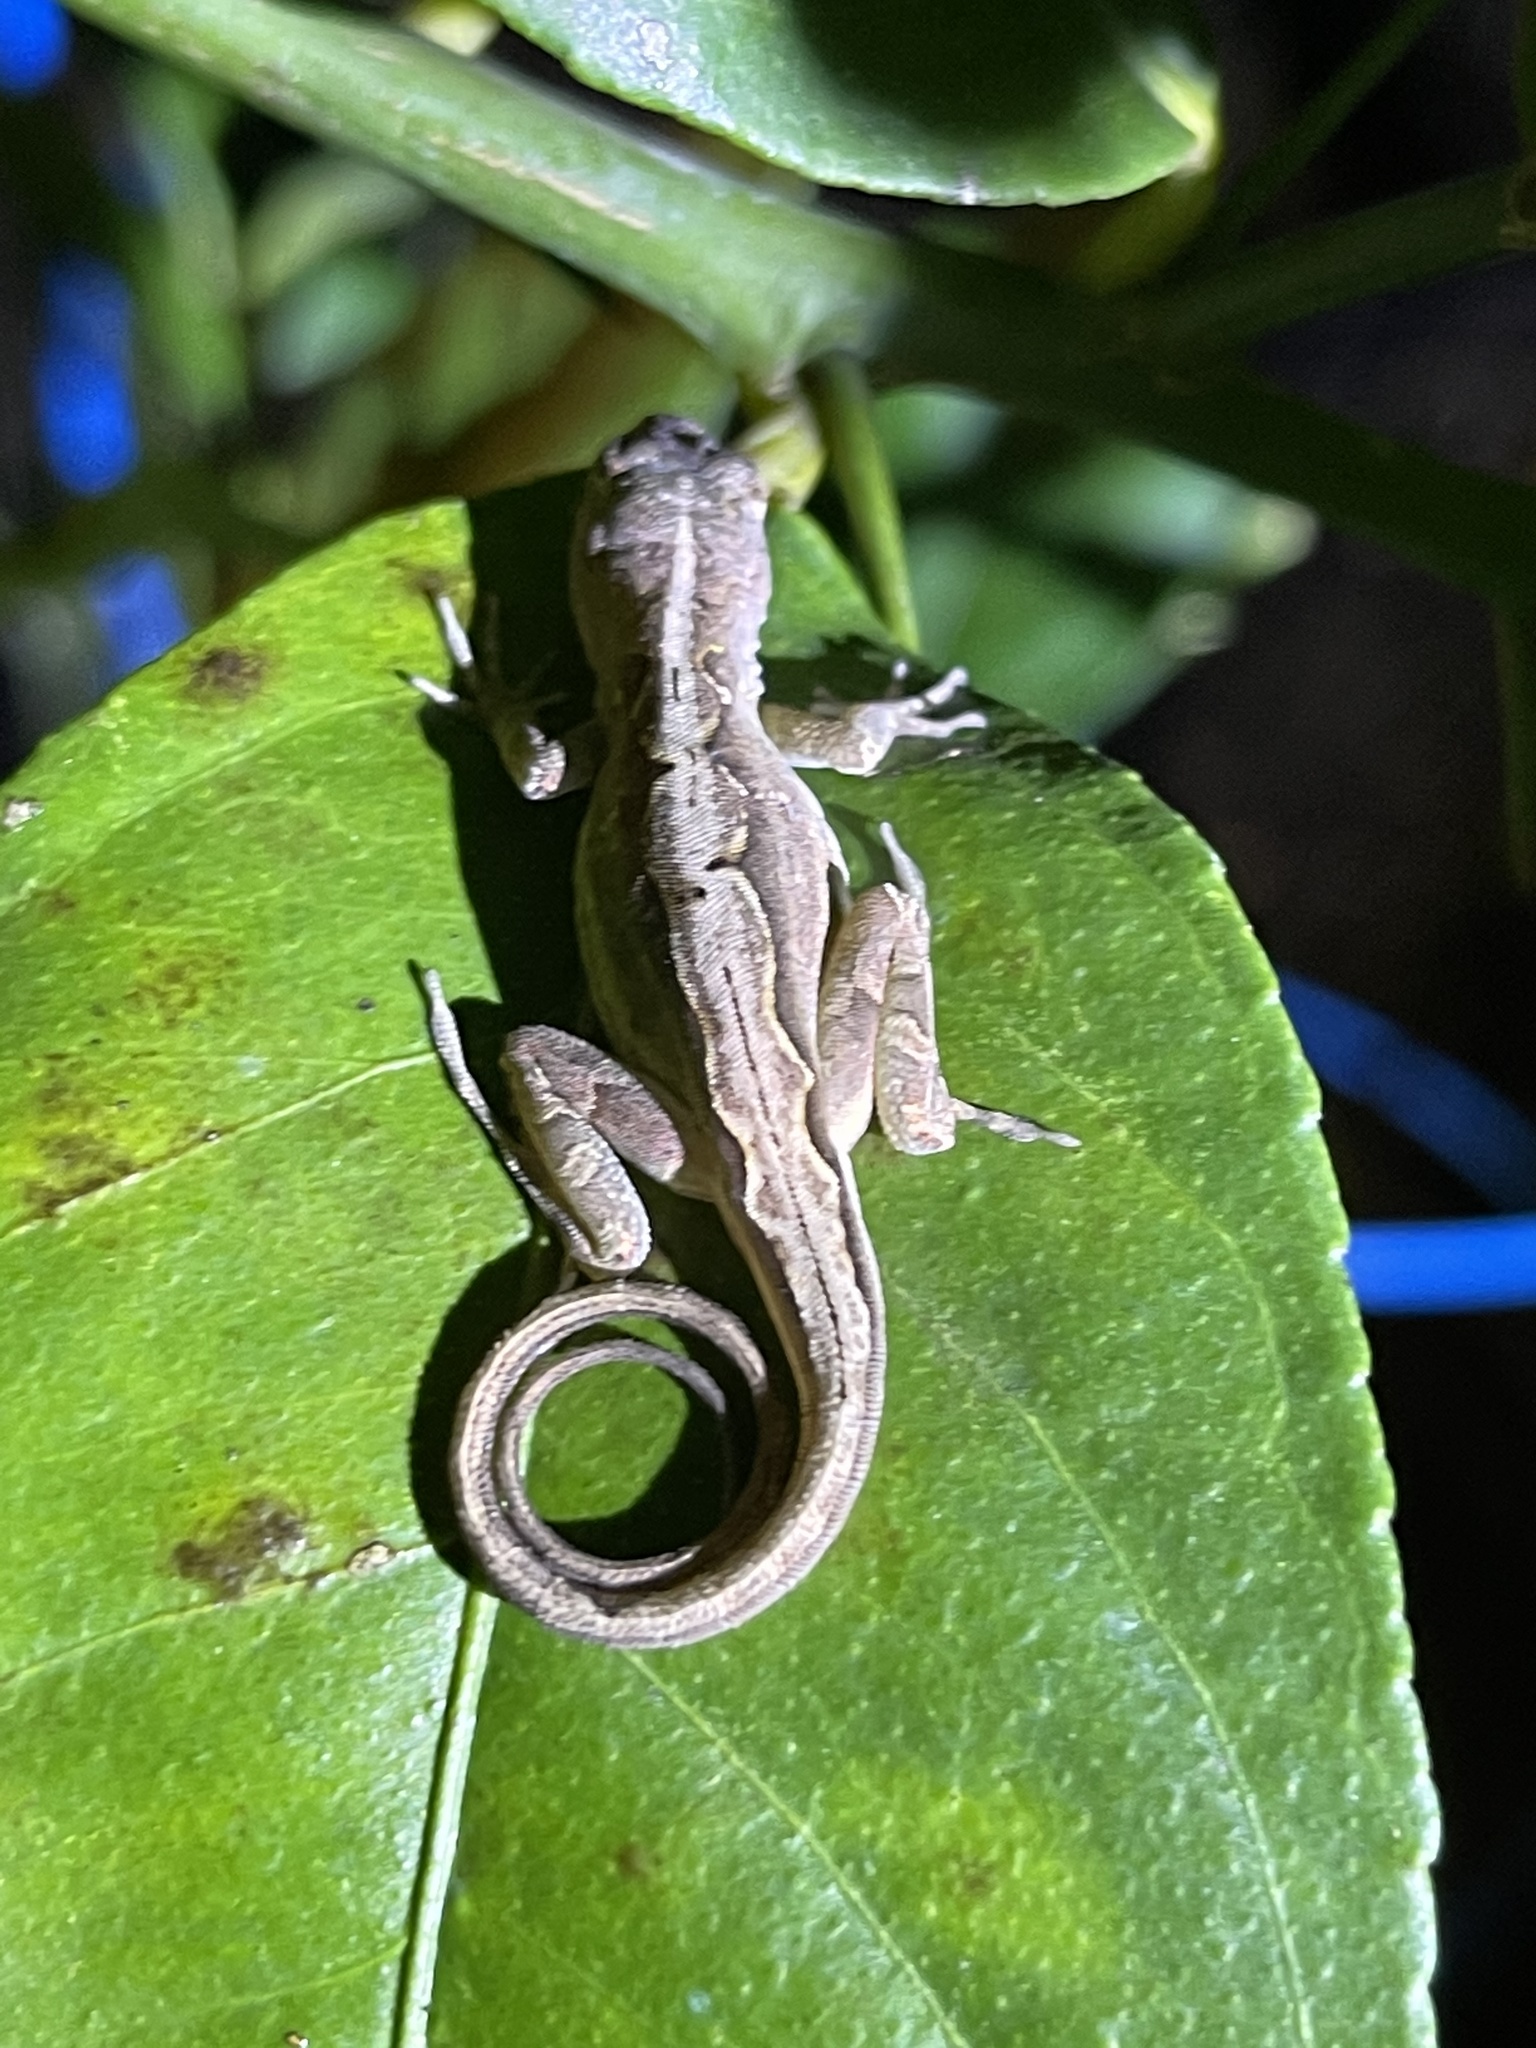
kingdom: Animalia
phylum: Chordata
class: Squamata
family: Dactyloidae
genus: Anolis
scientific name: Anolis sagrei
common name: Brown anole
